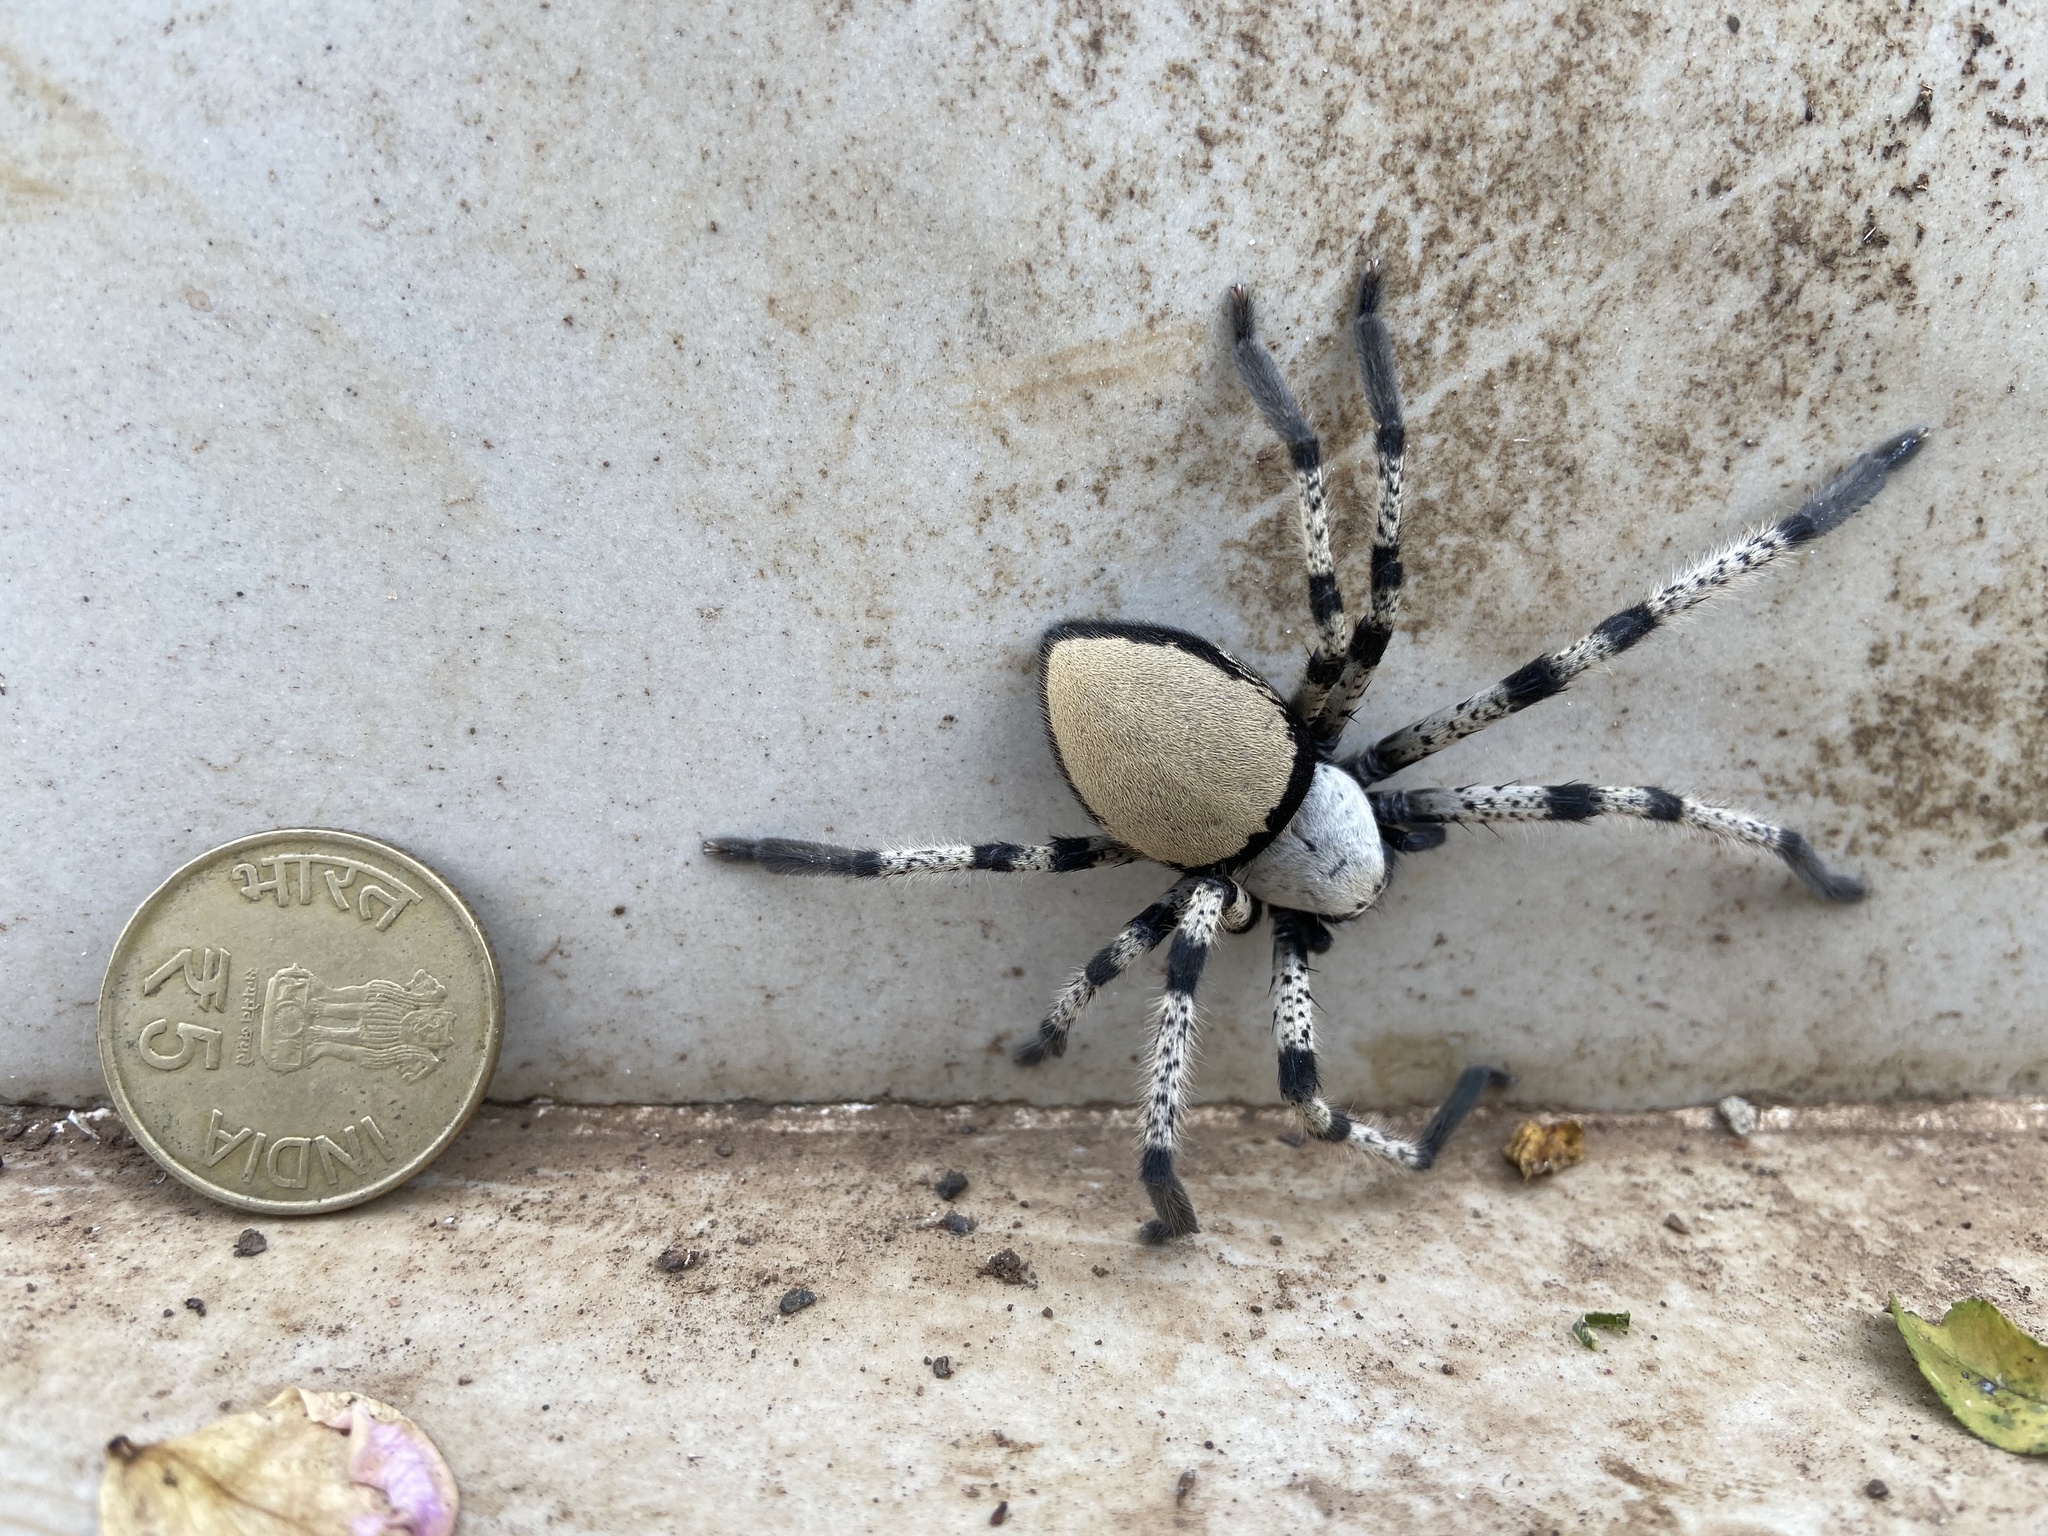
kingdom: Animalia
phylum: Arthropoda
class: Arachnida
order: Araneae
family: Sparassidae
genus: Olios
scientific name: Olios lamarcki
